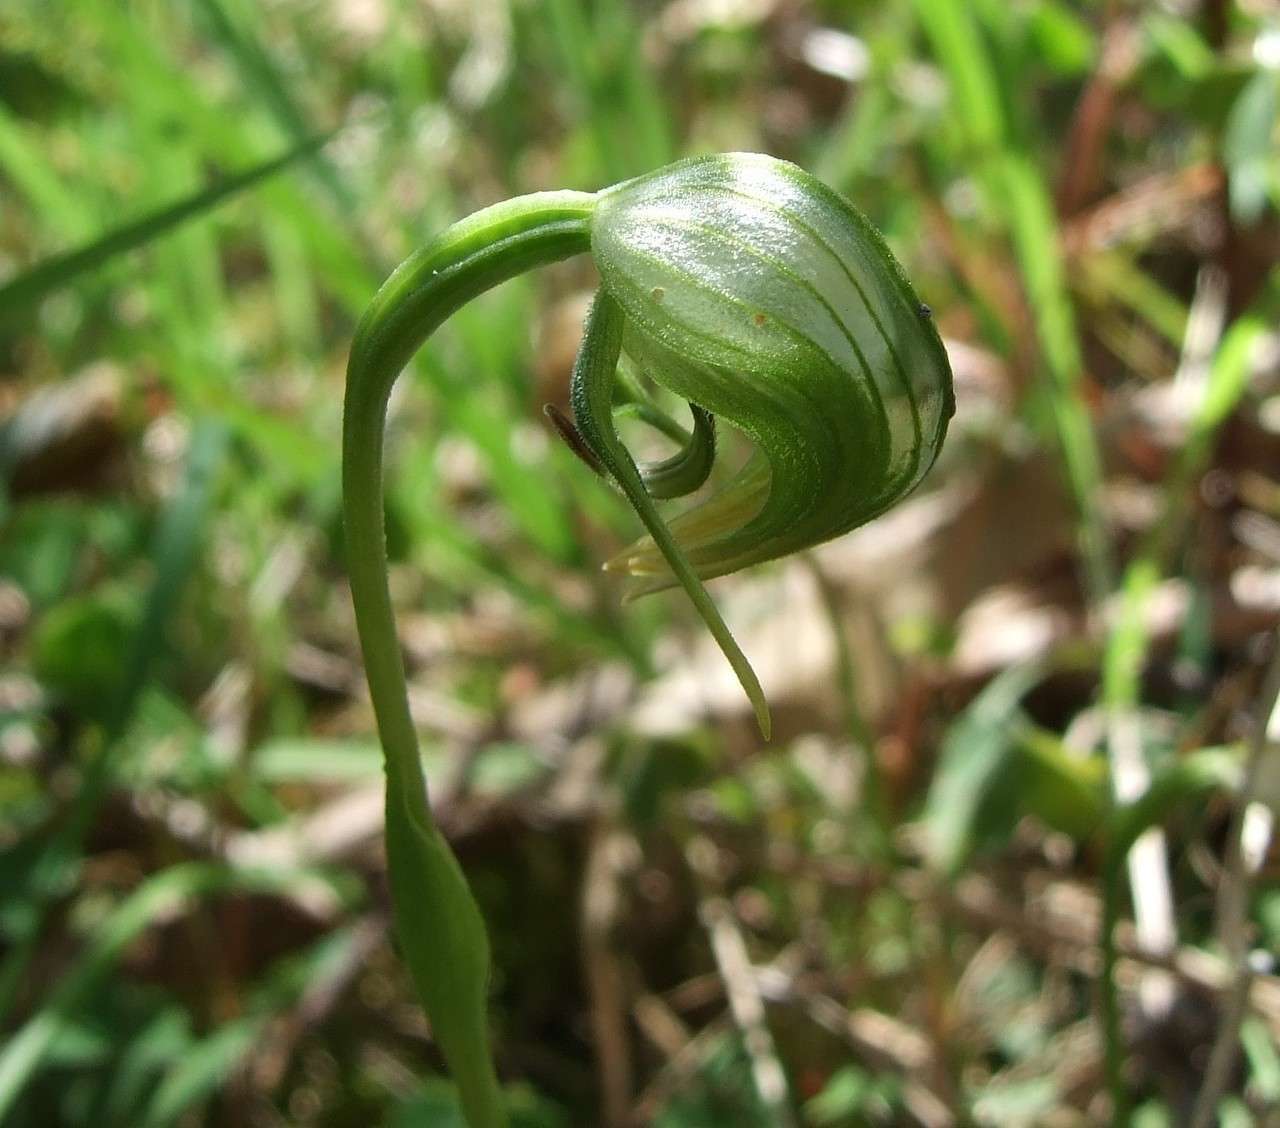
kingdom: Plantae
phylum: Tracheophyta
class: Liliopsida
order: Asparagales
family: Orchidaceae
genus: Pterostylis
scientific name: Pterostylis nutans
